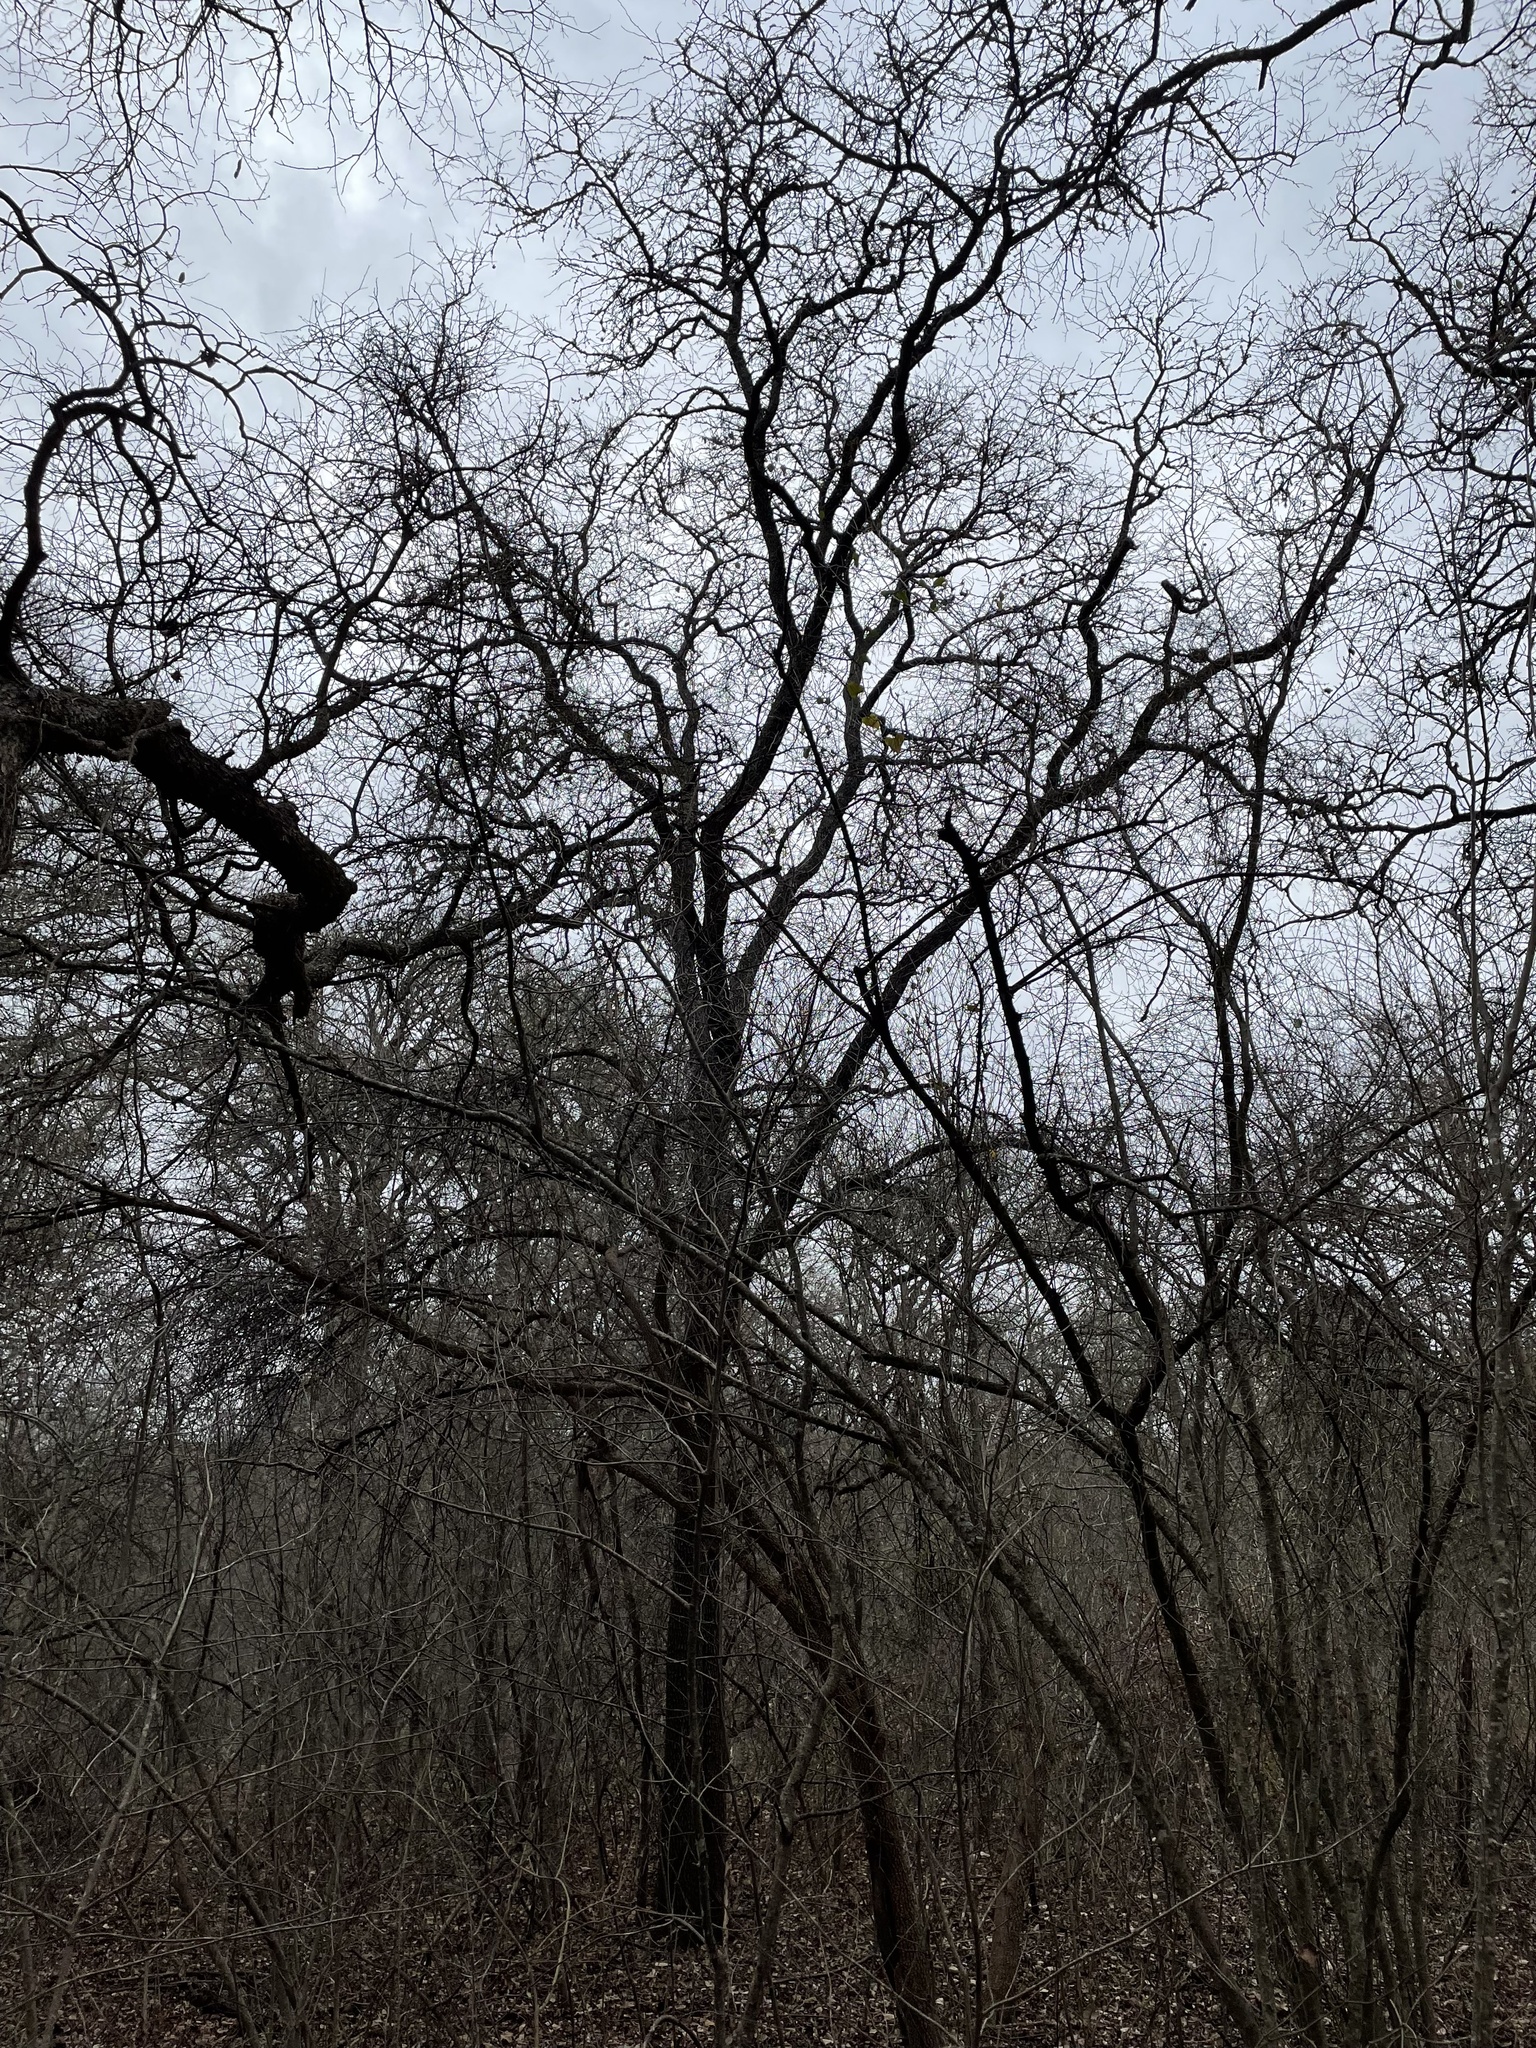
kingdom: Plantae
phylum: Tracheophyta
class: Magnoliopsida
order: Ericales
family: Sapotaceae
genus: Sideroxylon
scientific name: Sideroxylon lanuginosum
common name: Chittamwood
